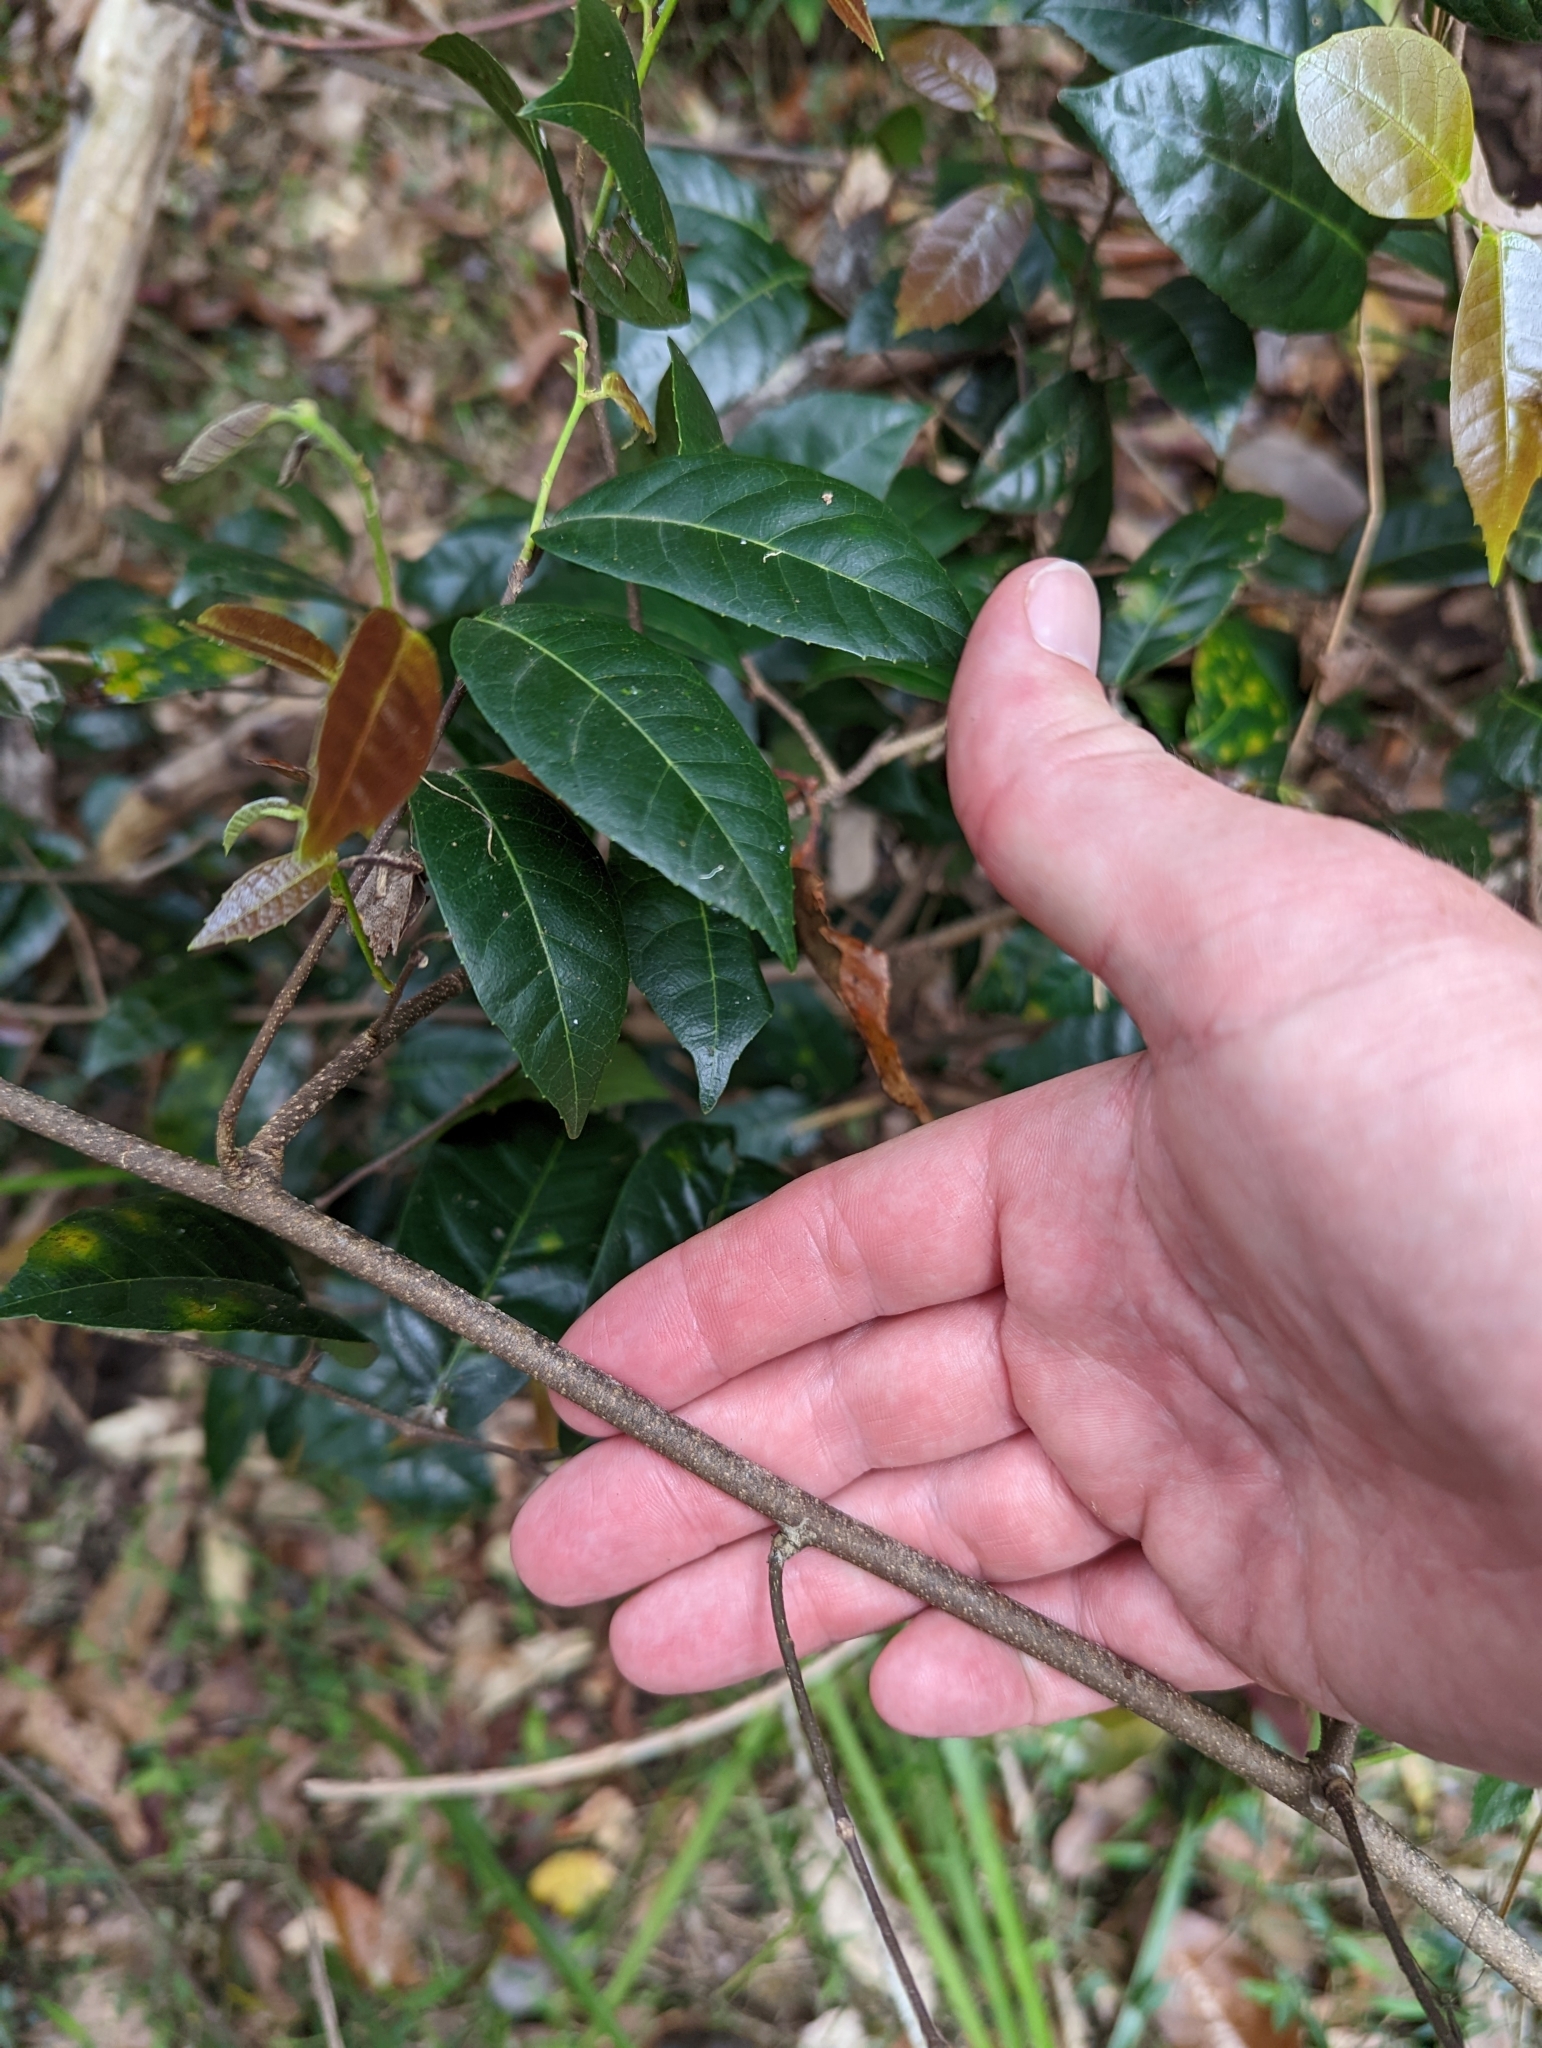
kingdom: Plantae
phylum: Tracheophyta
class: Magnoliopsida
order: Rosales
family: Moraceae
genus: Malaisia
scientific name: Malaisia scandens
